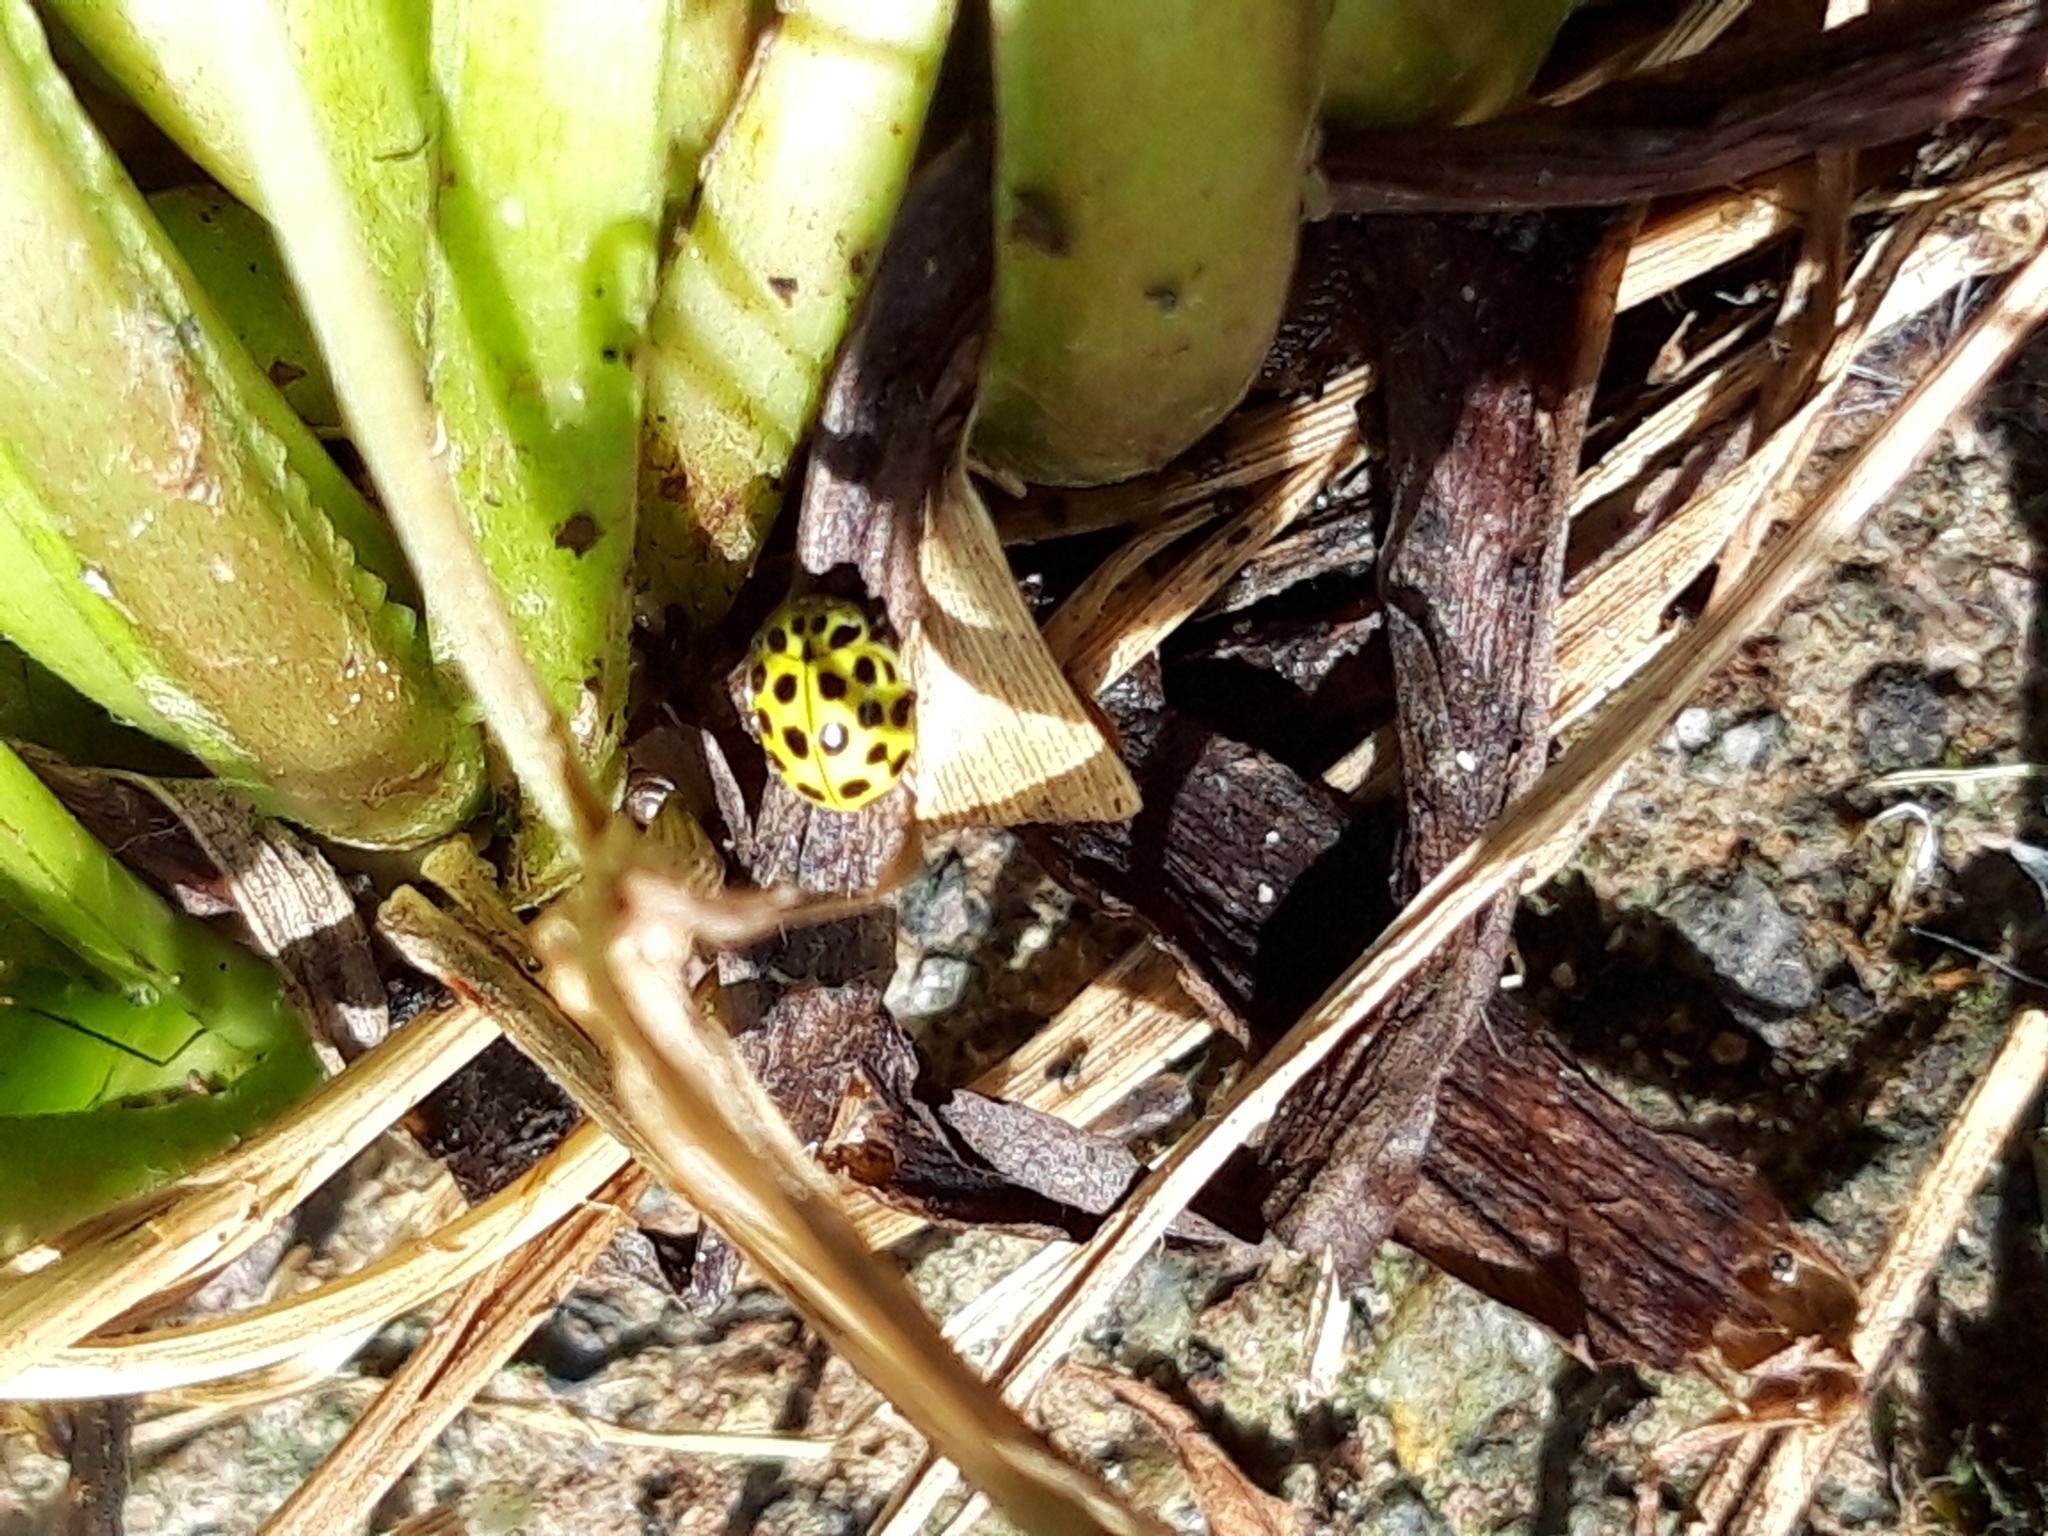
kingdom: Animalia
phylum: Arthropoda
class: Insecta
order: Coleoptera
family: Coccinellidae
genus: Psyllobora
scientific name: Psyllobora vigintiduopunctata
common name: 22-spot ladybird
